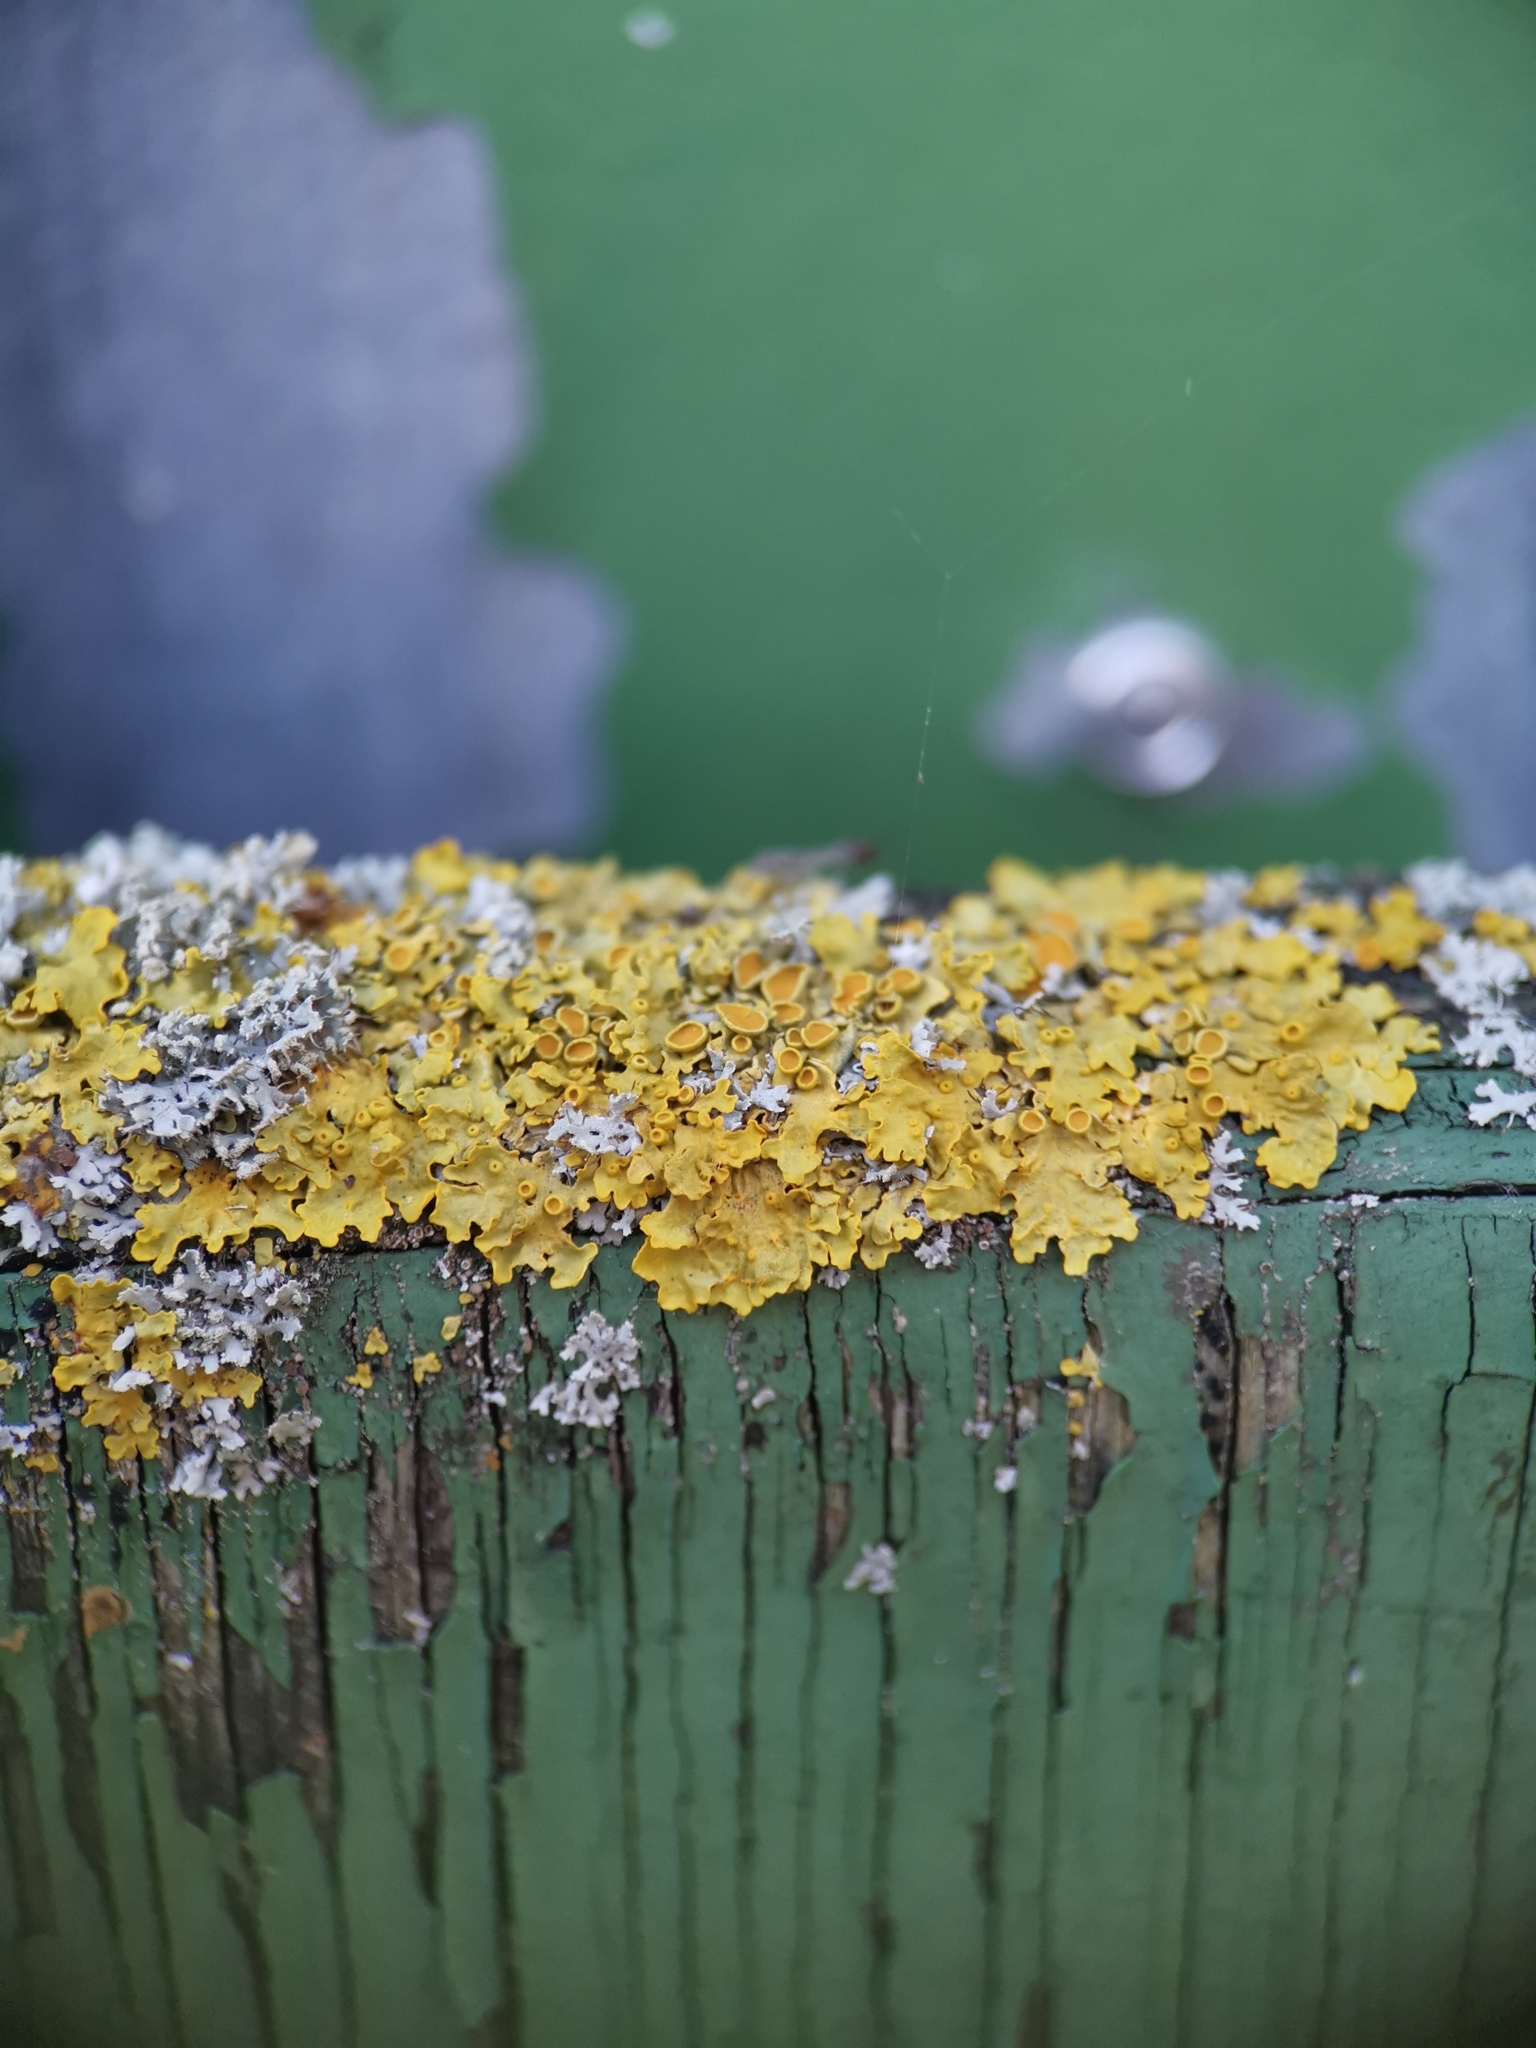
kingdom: Fungi
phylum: Ascomycota
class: Lecanoromycetes
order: Teloschistales
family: Teloschistaceae
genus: Xanthoria
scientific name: Xanthoria parietina
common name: Common orange lichen
